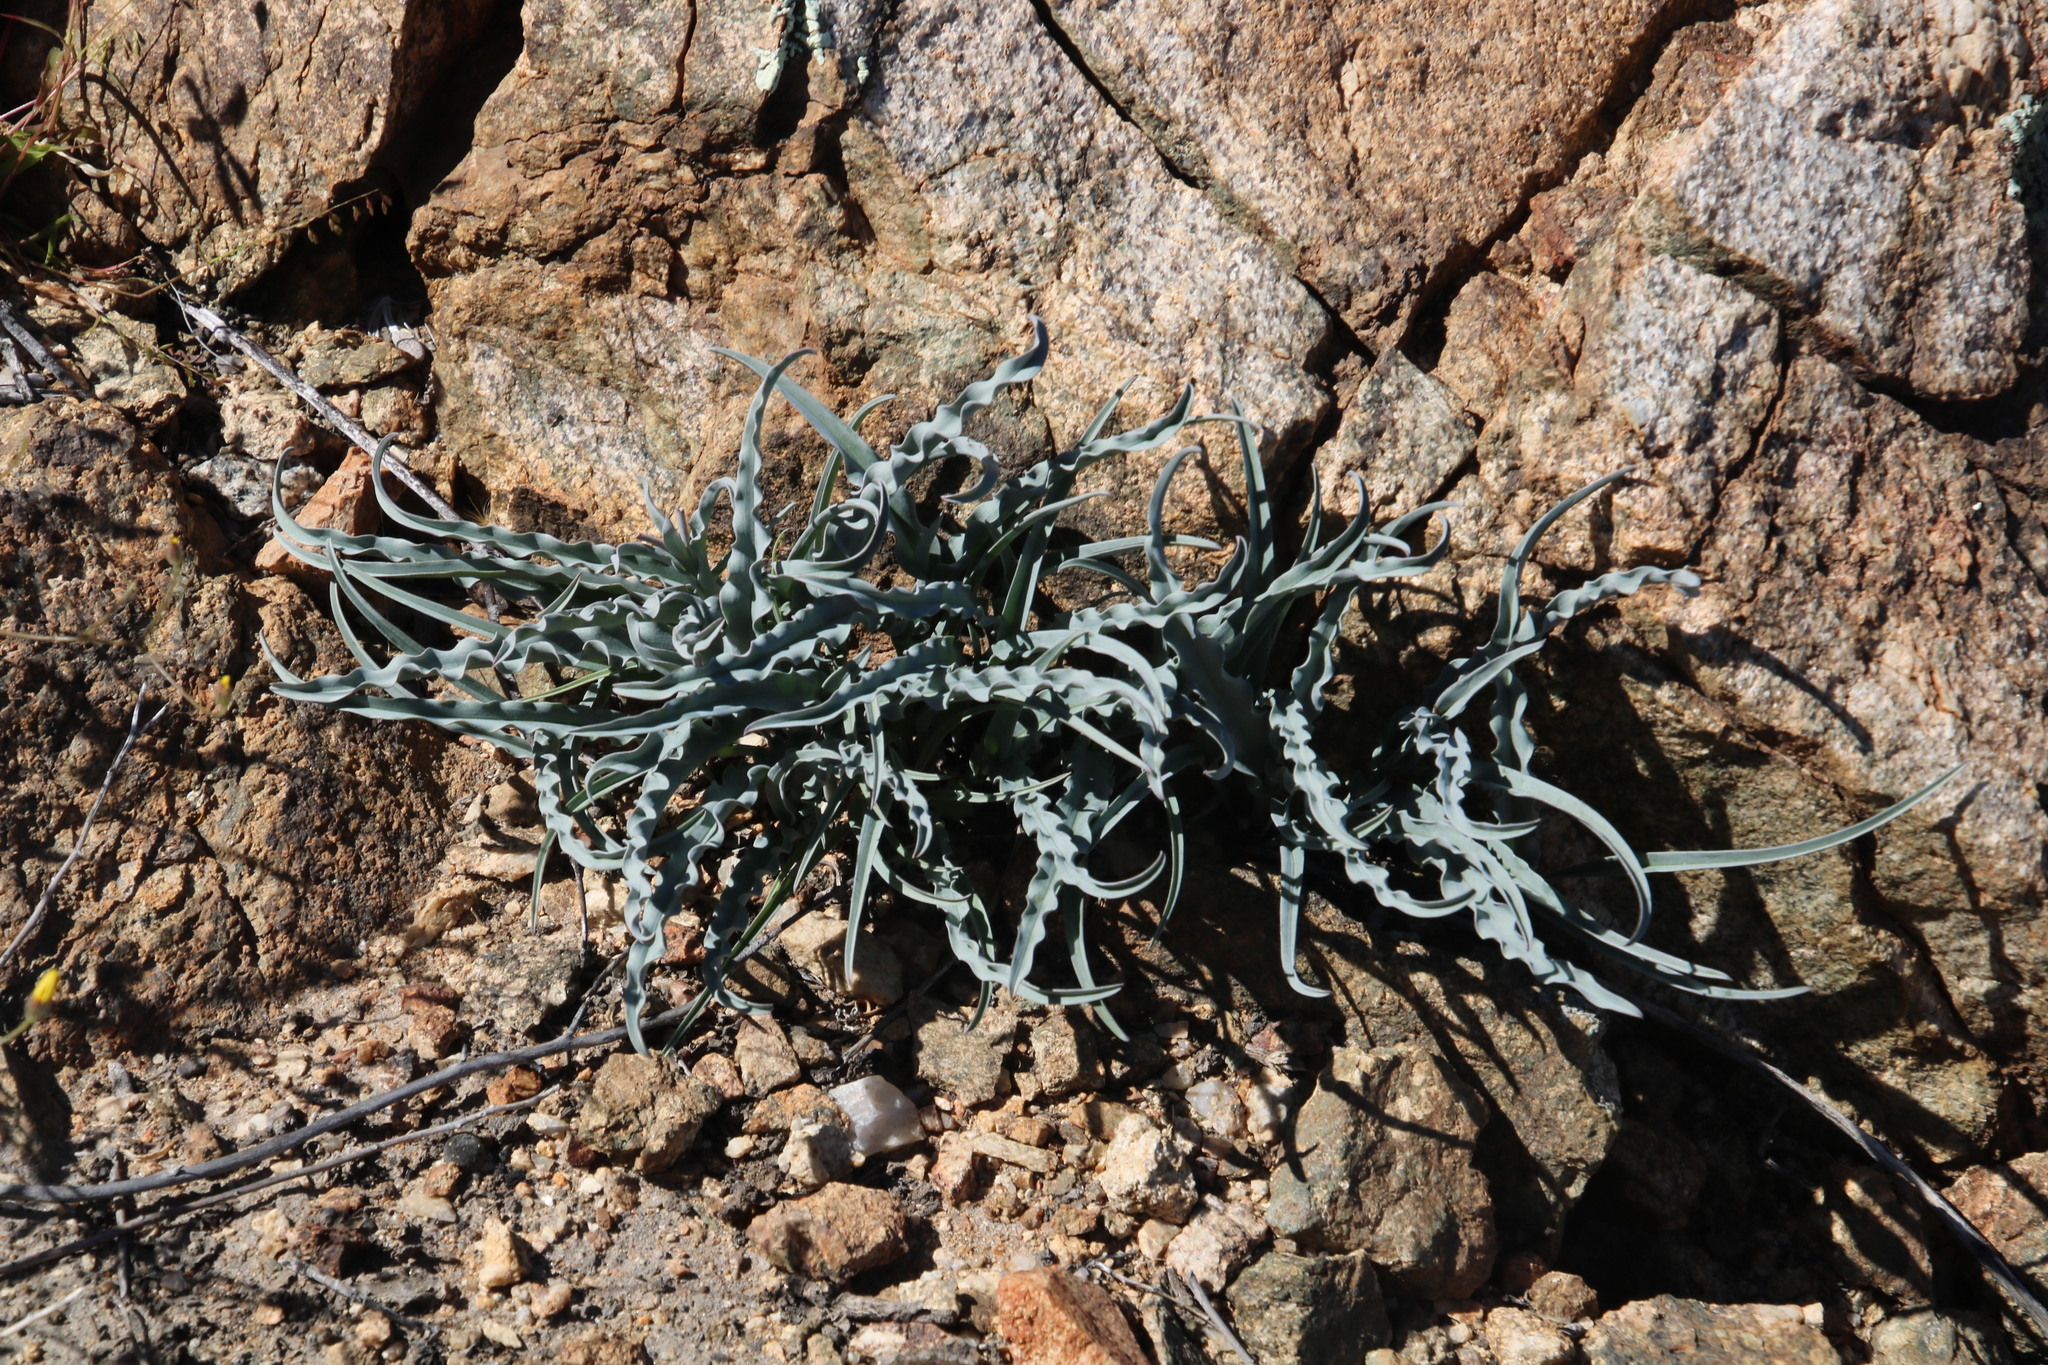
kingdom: Plantae
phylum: Tracheophyta
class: Liliopsida
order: Liliales
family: Colchicaceae
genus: Ornithoglossum
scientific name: Ornithoglossum zeyheri
